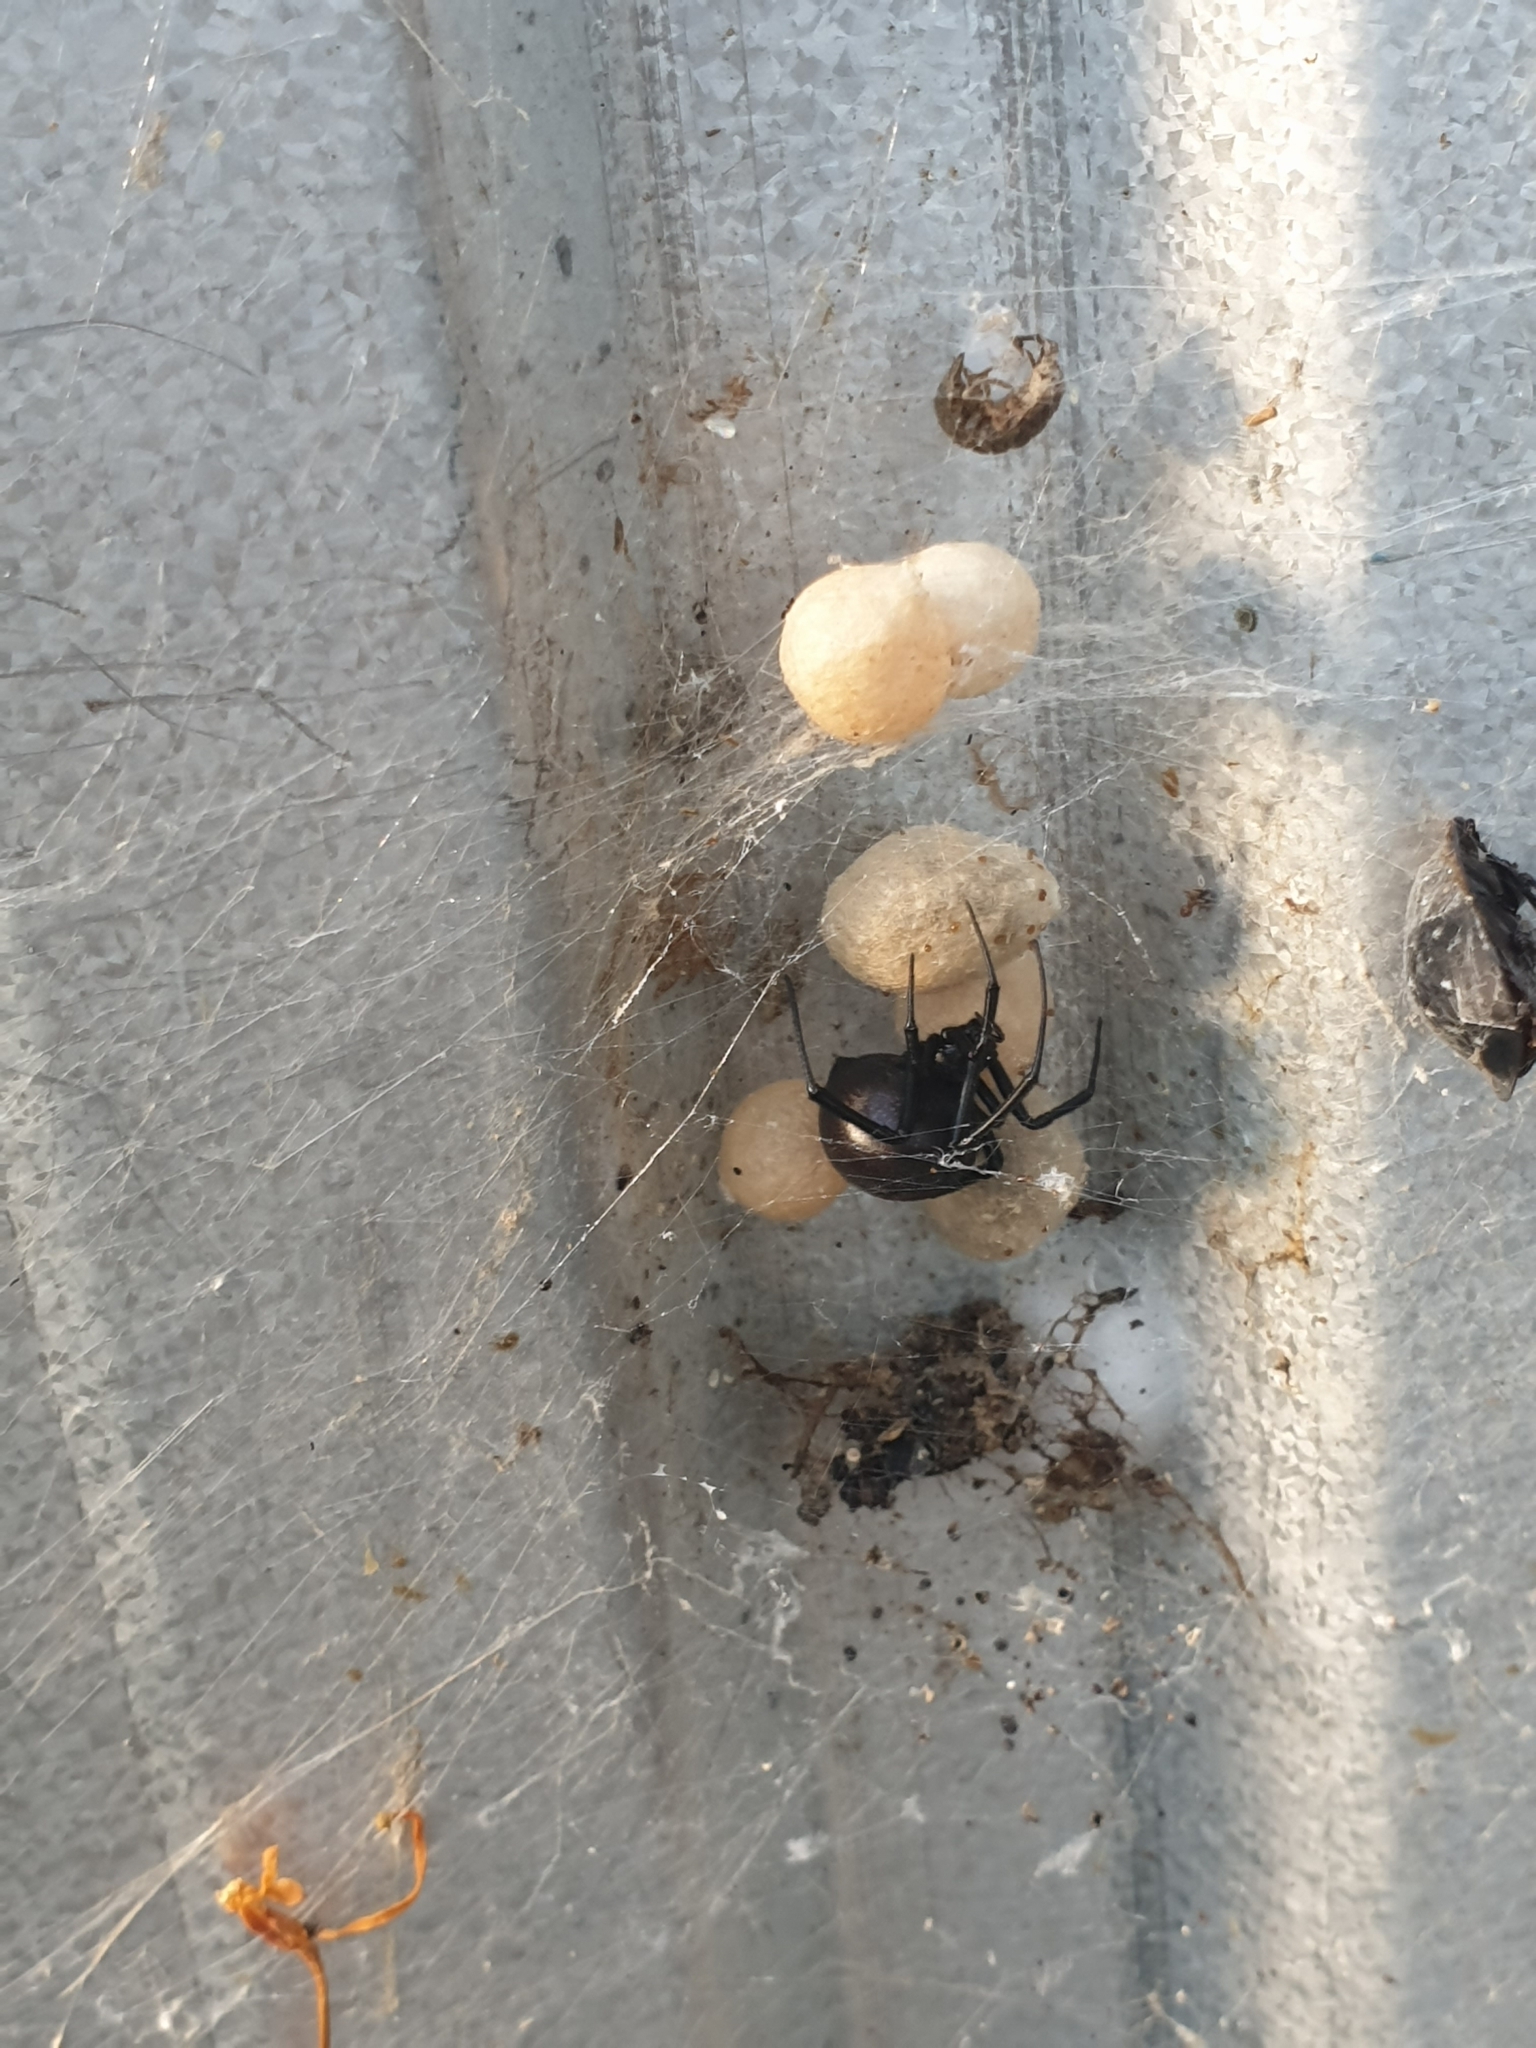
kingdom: Animalia
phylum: Arthropoda
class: Arachnida
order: Araneae
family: Theridiidae
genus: Latrodectus
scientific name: Latrodectus hasselti
